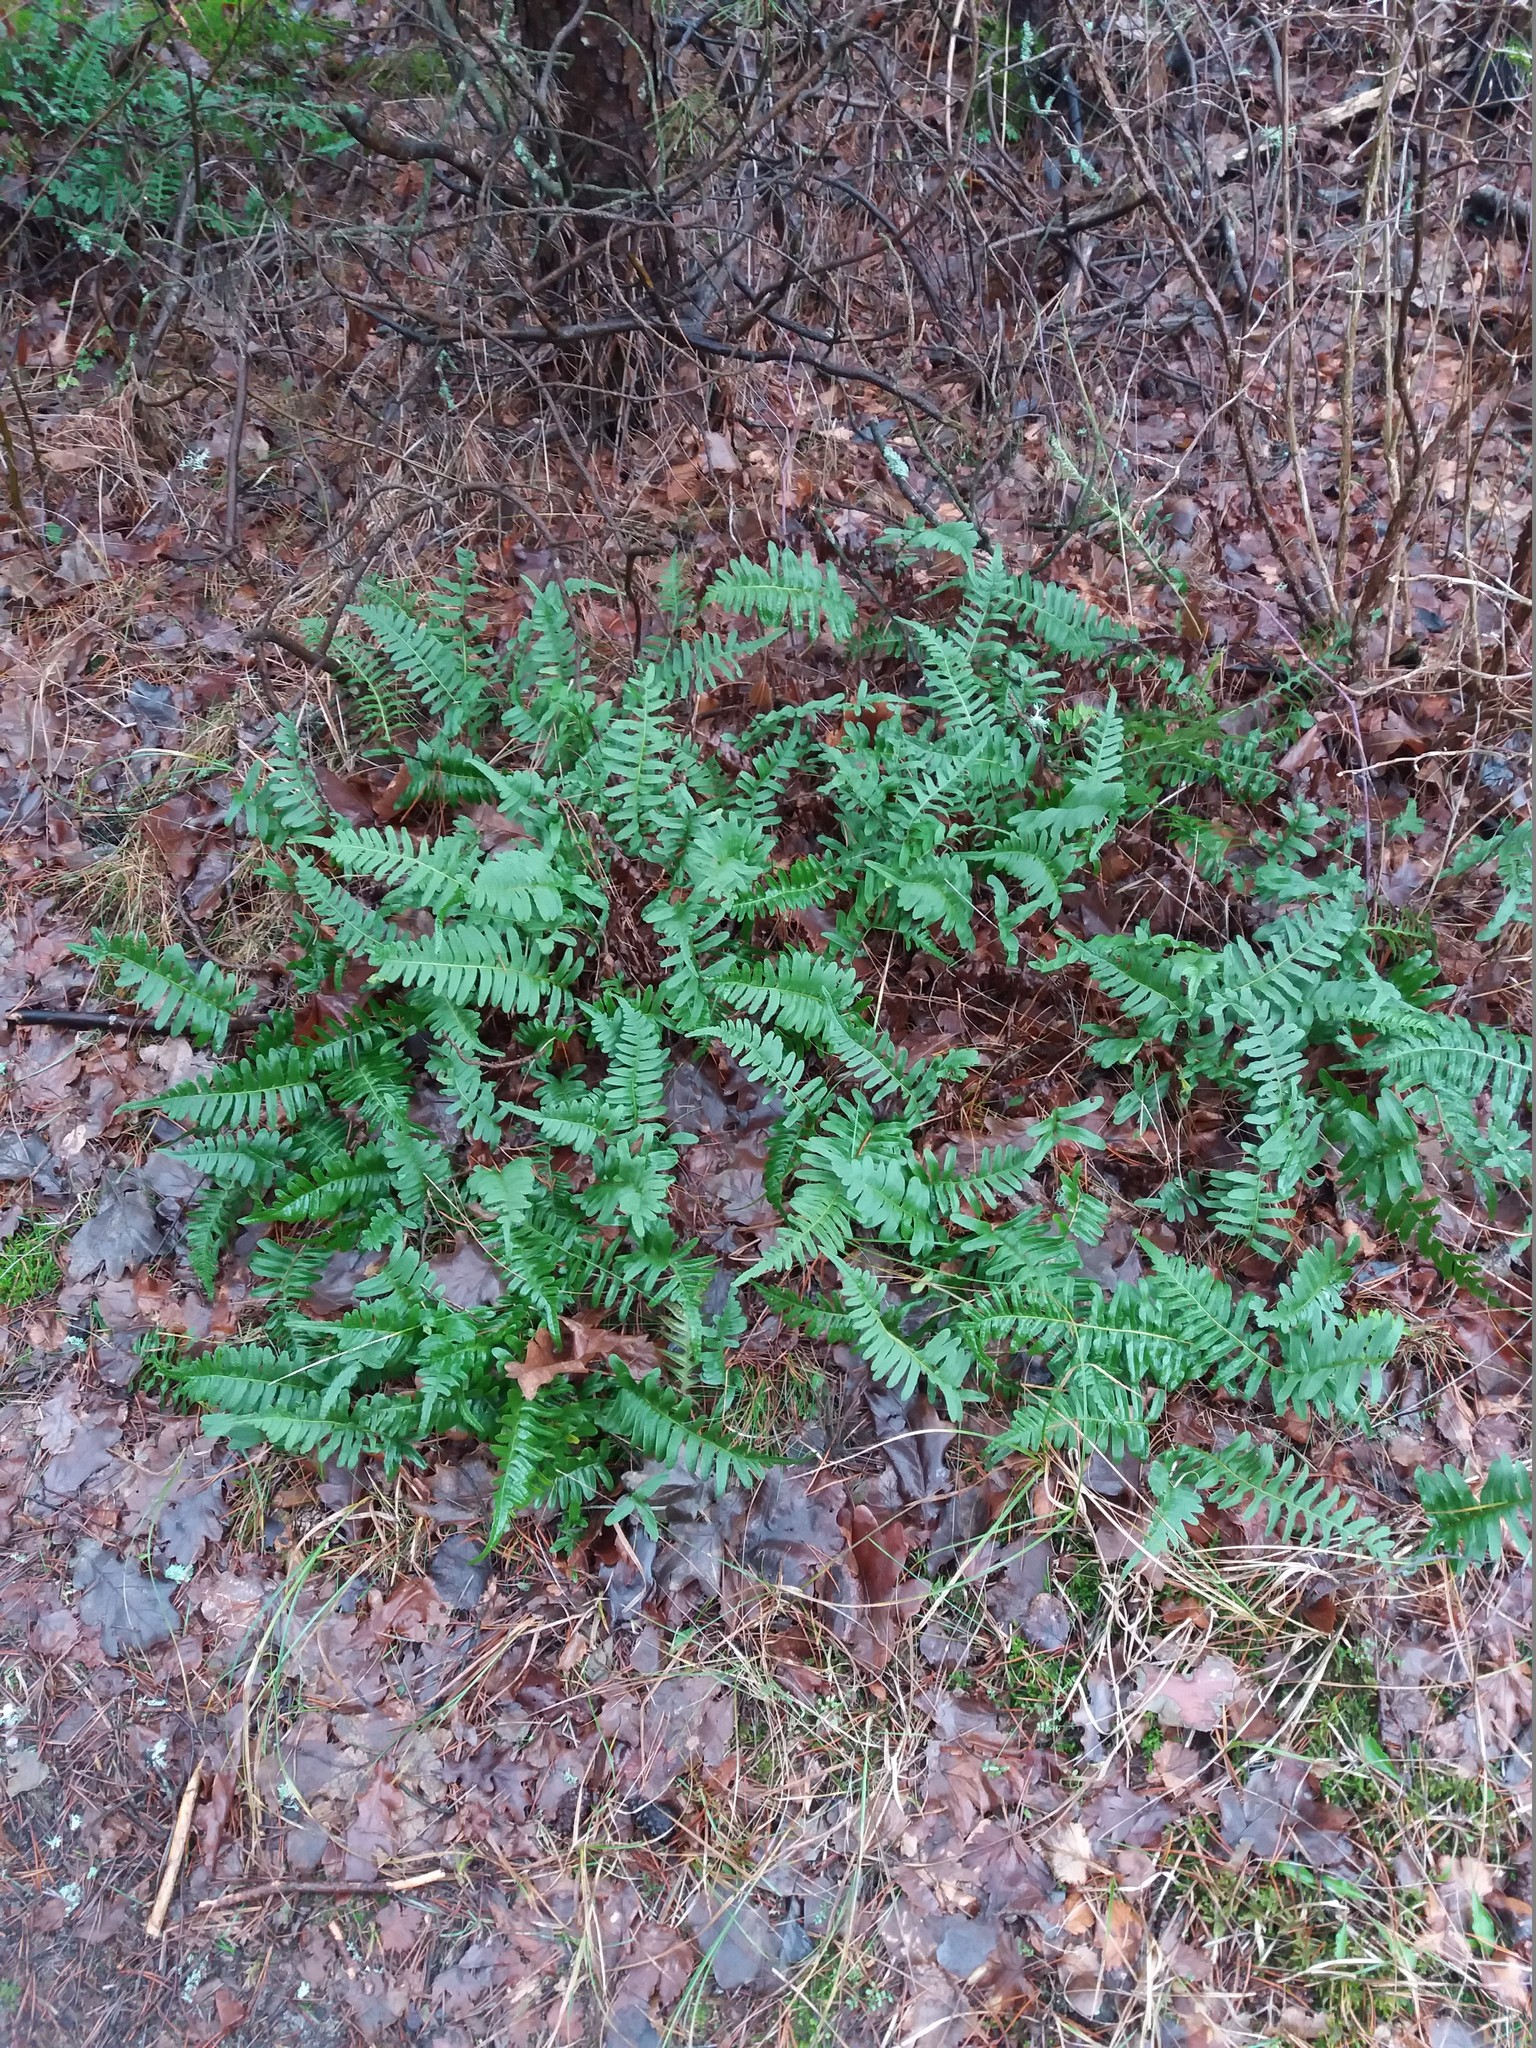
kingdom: Plantae
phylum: Tracheophyta
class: Polypodiopsida
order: Polypodiales
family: Polypodiaceae
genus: Polypodium
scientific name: Polypodium vulgare
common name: Common polypody
